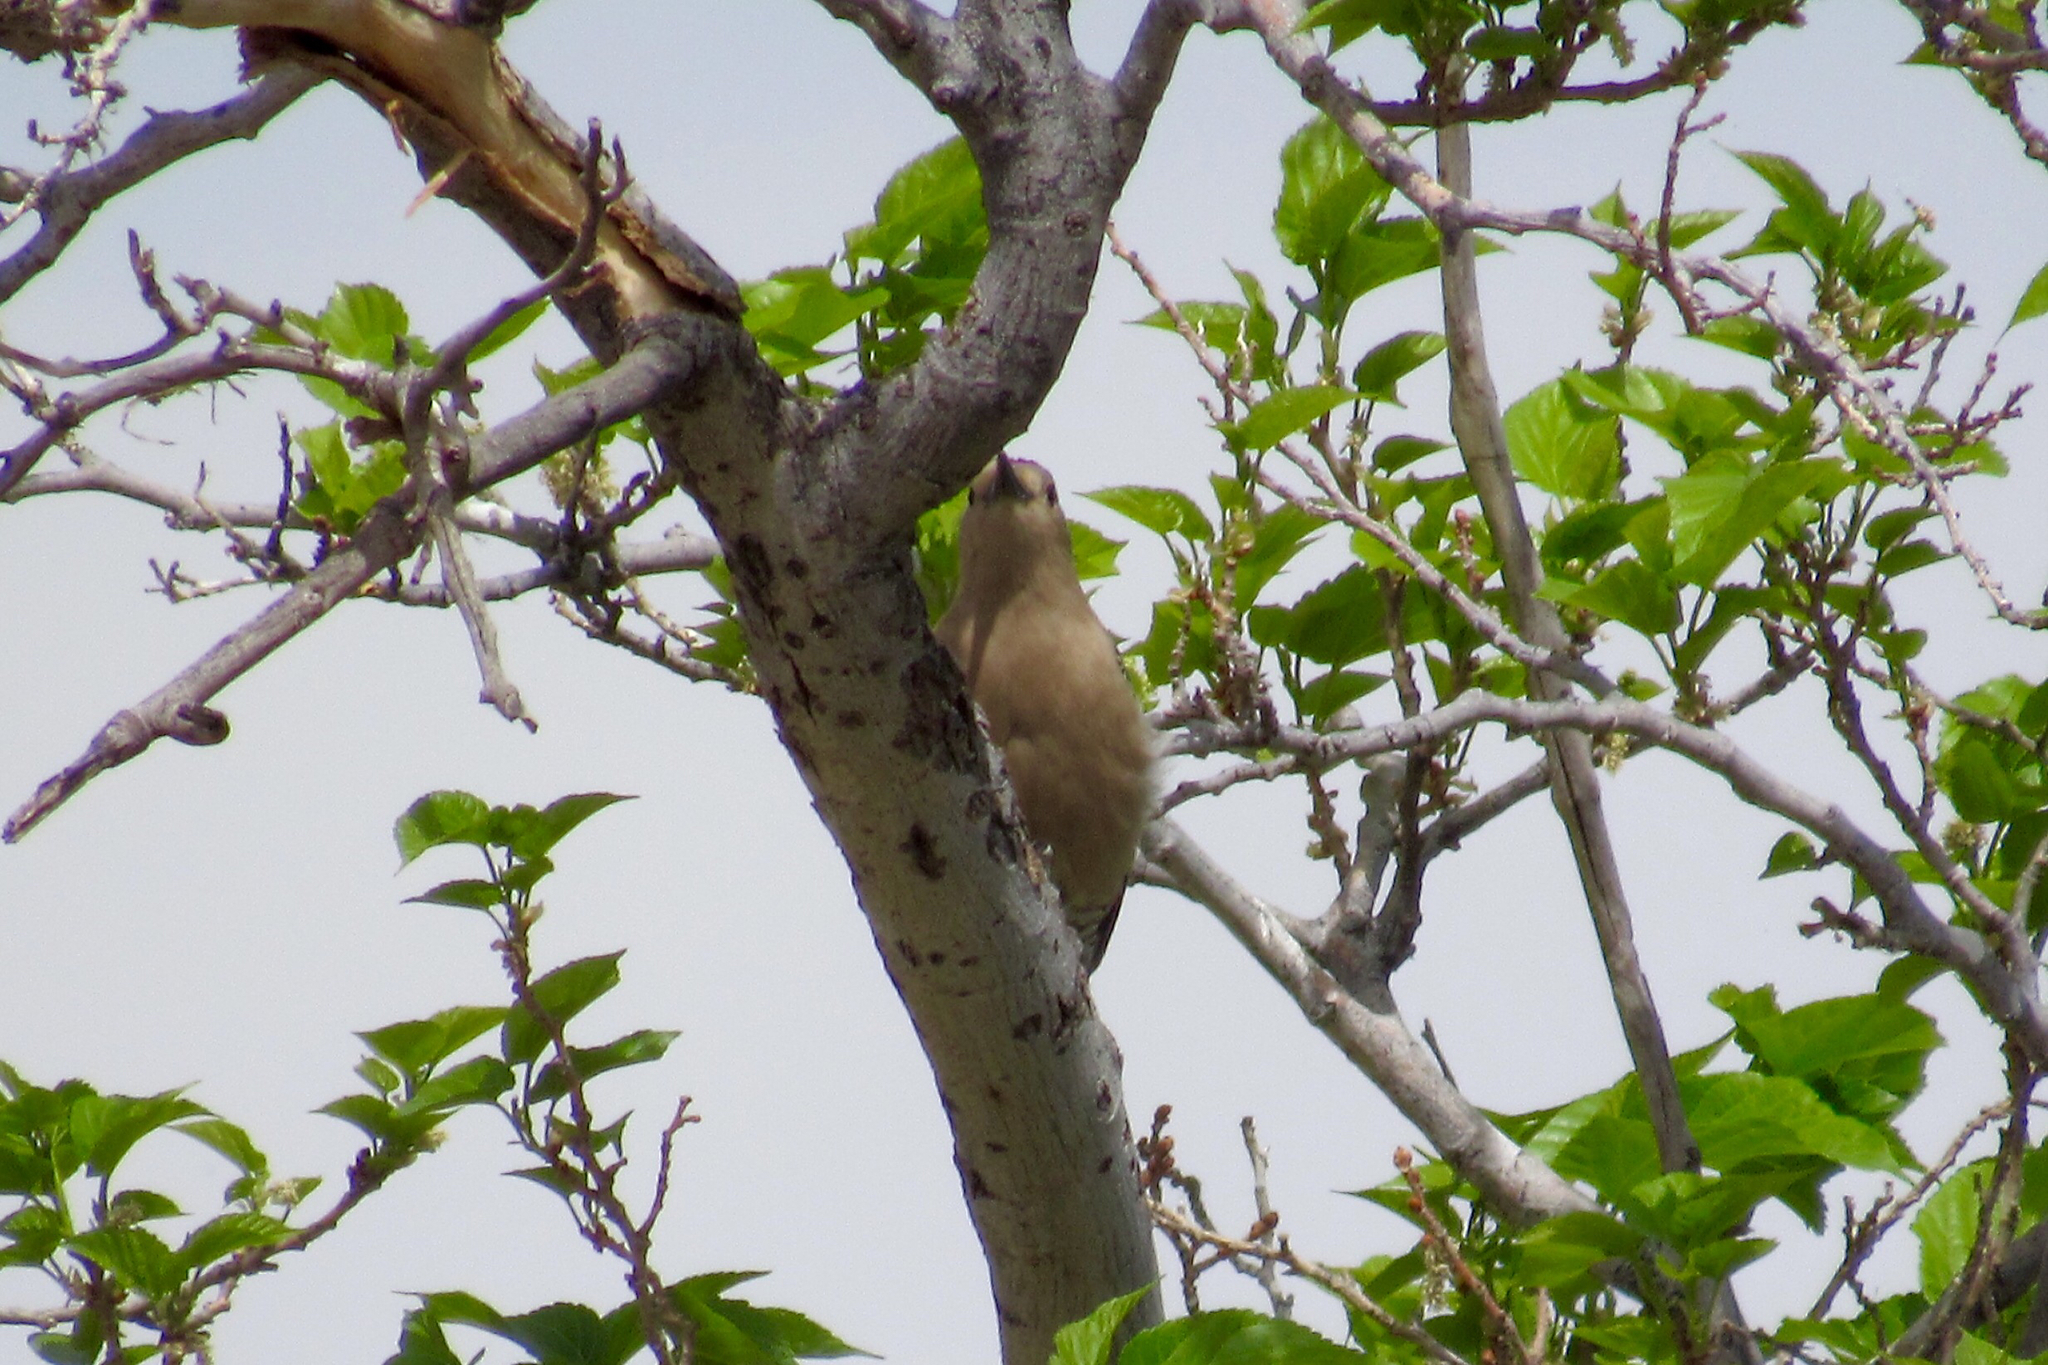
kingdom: Animalia
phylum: Chordata
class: Aves
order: Piciformes
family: Picidae
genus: Melanerpes
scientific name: Melanerpes uropygialis
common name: Gila woodpecker
